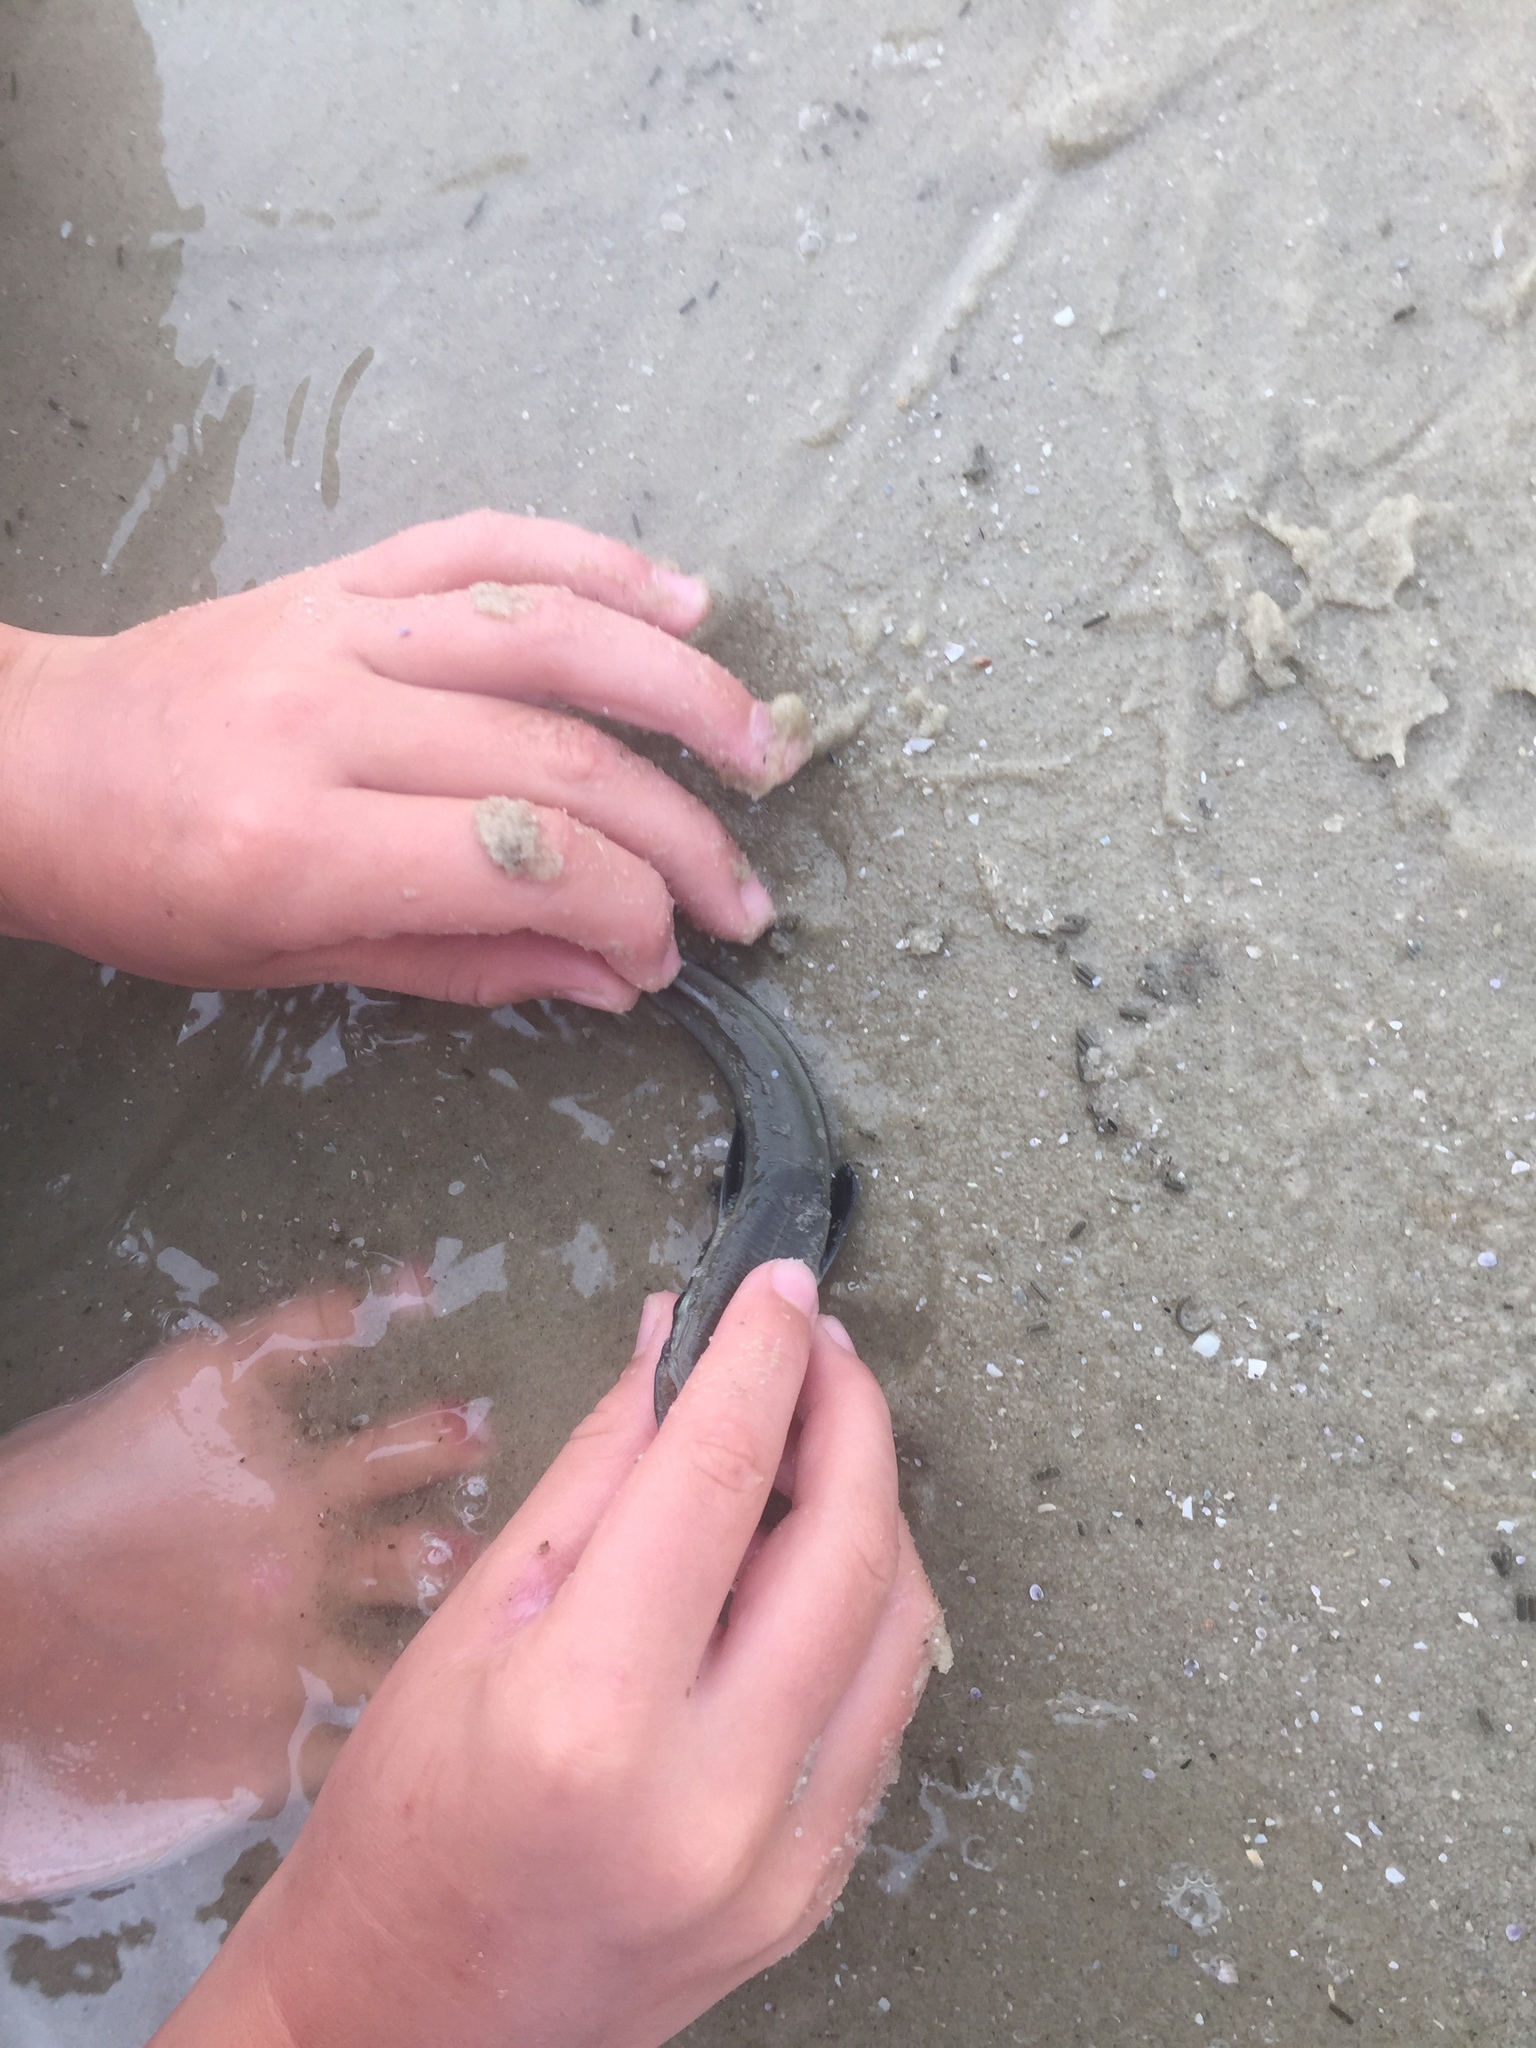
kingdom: Animalia
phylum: Chordata
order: Perciformes
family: Echeneidae
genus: Echeneis
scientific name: Echeneis naucrates
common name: Sharksucker
